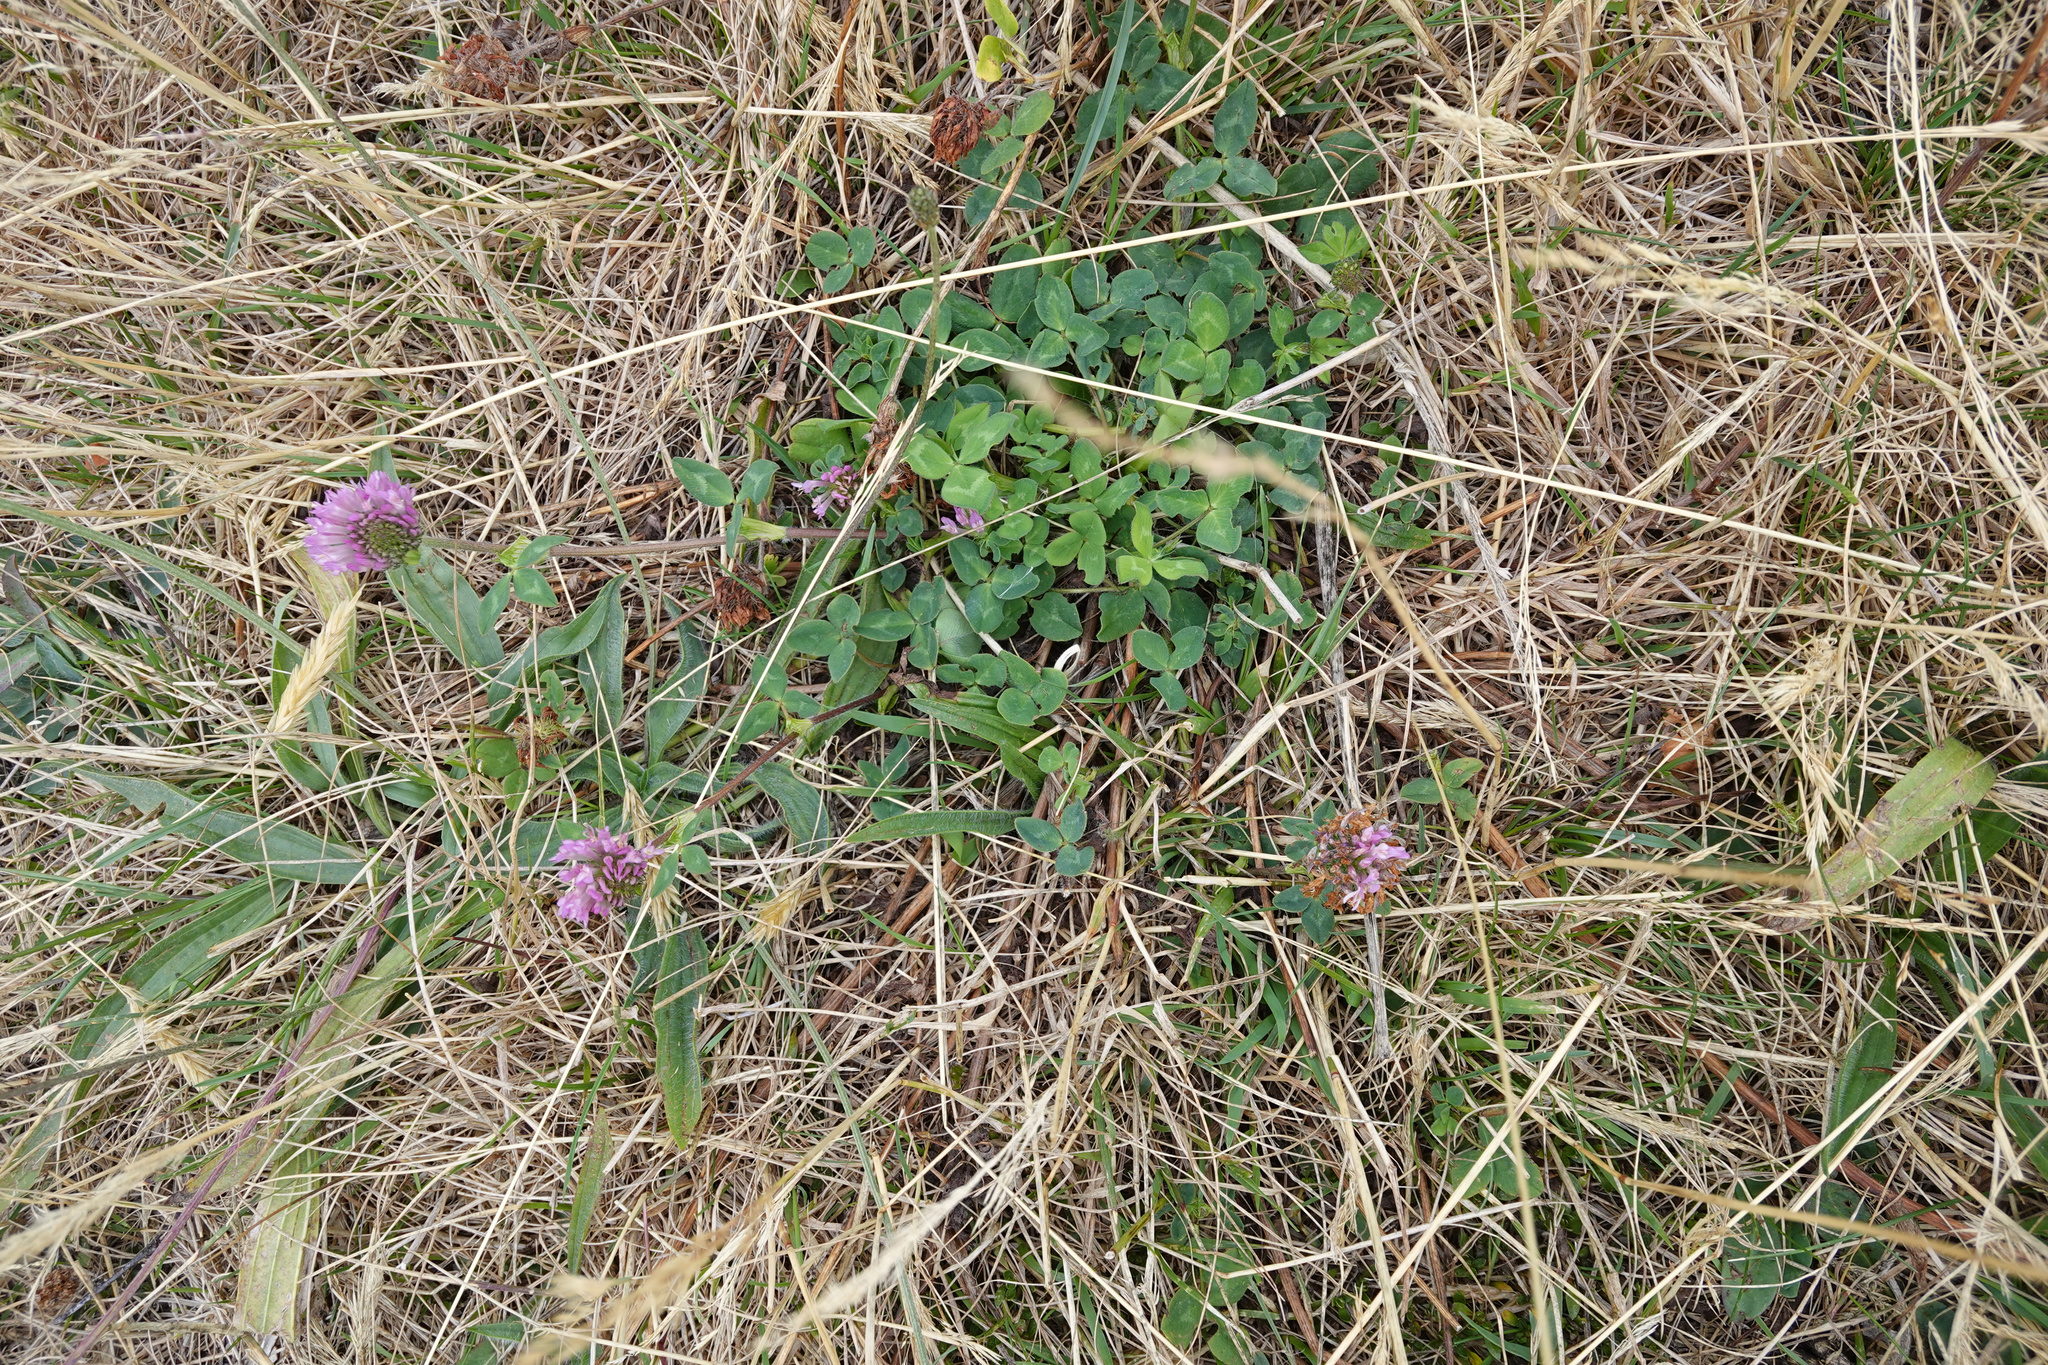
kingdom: Plantae
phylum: Tracheophyta
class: Magnoliopsida
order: Fabales
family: Fabaceae
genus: Trifolium
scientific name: Trifolium pratense
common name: Red clover
